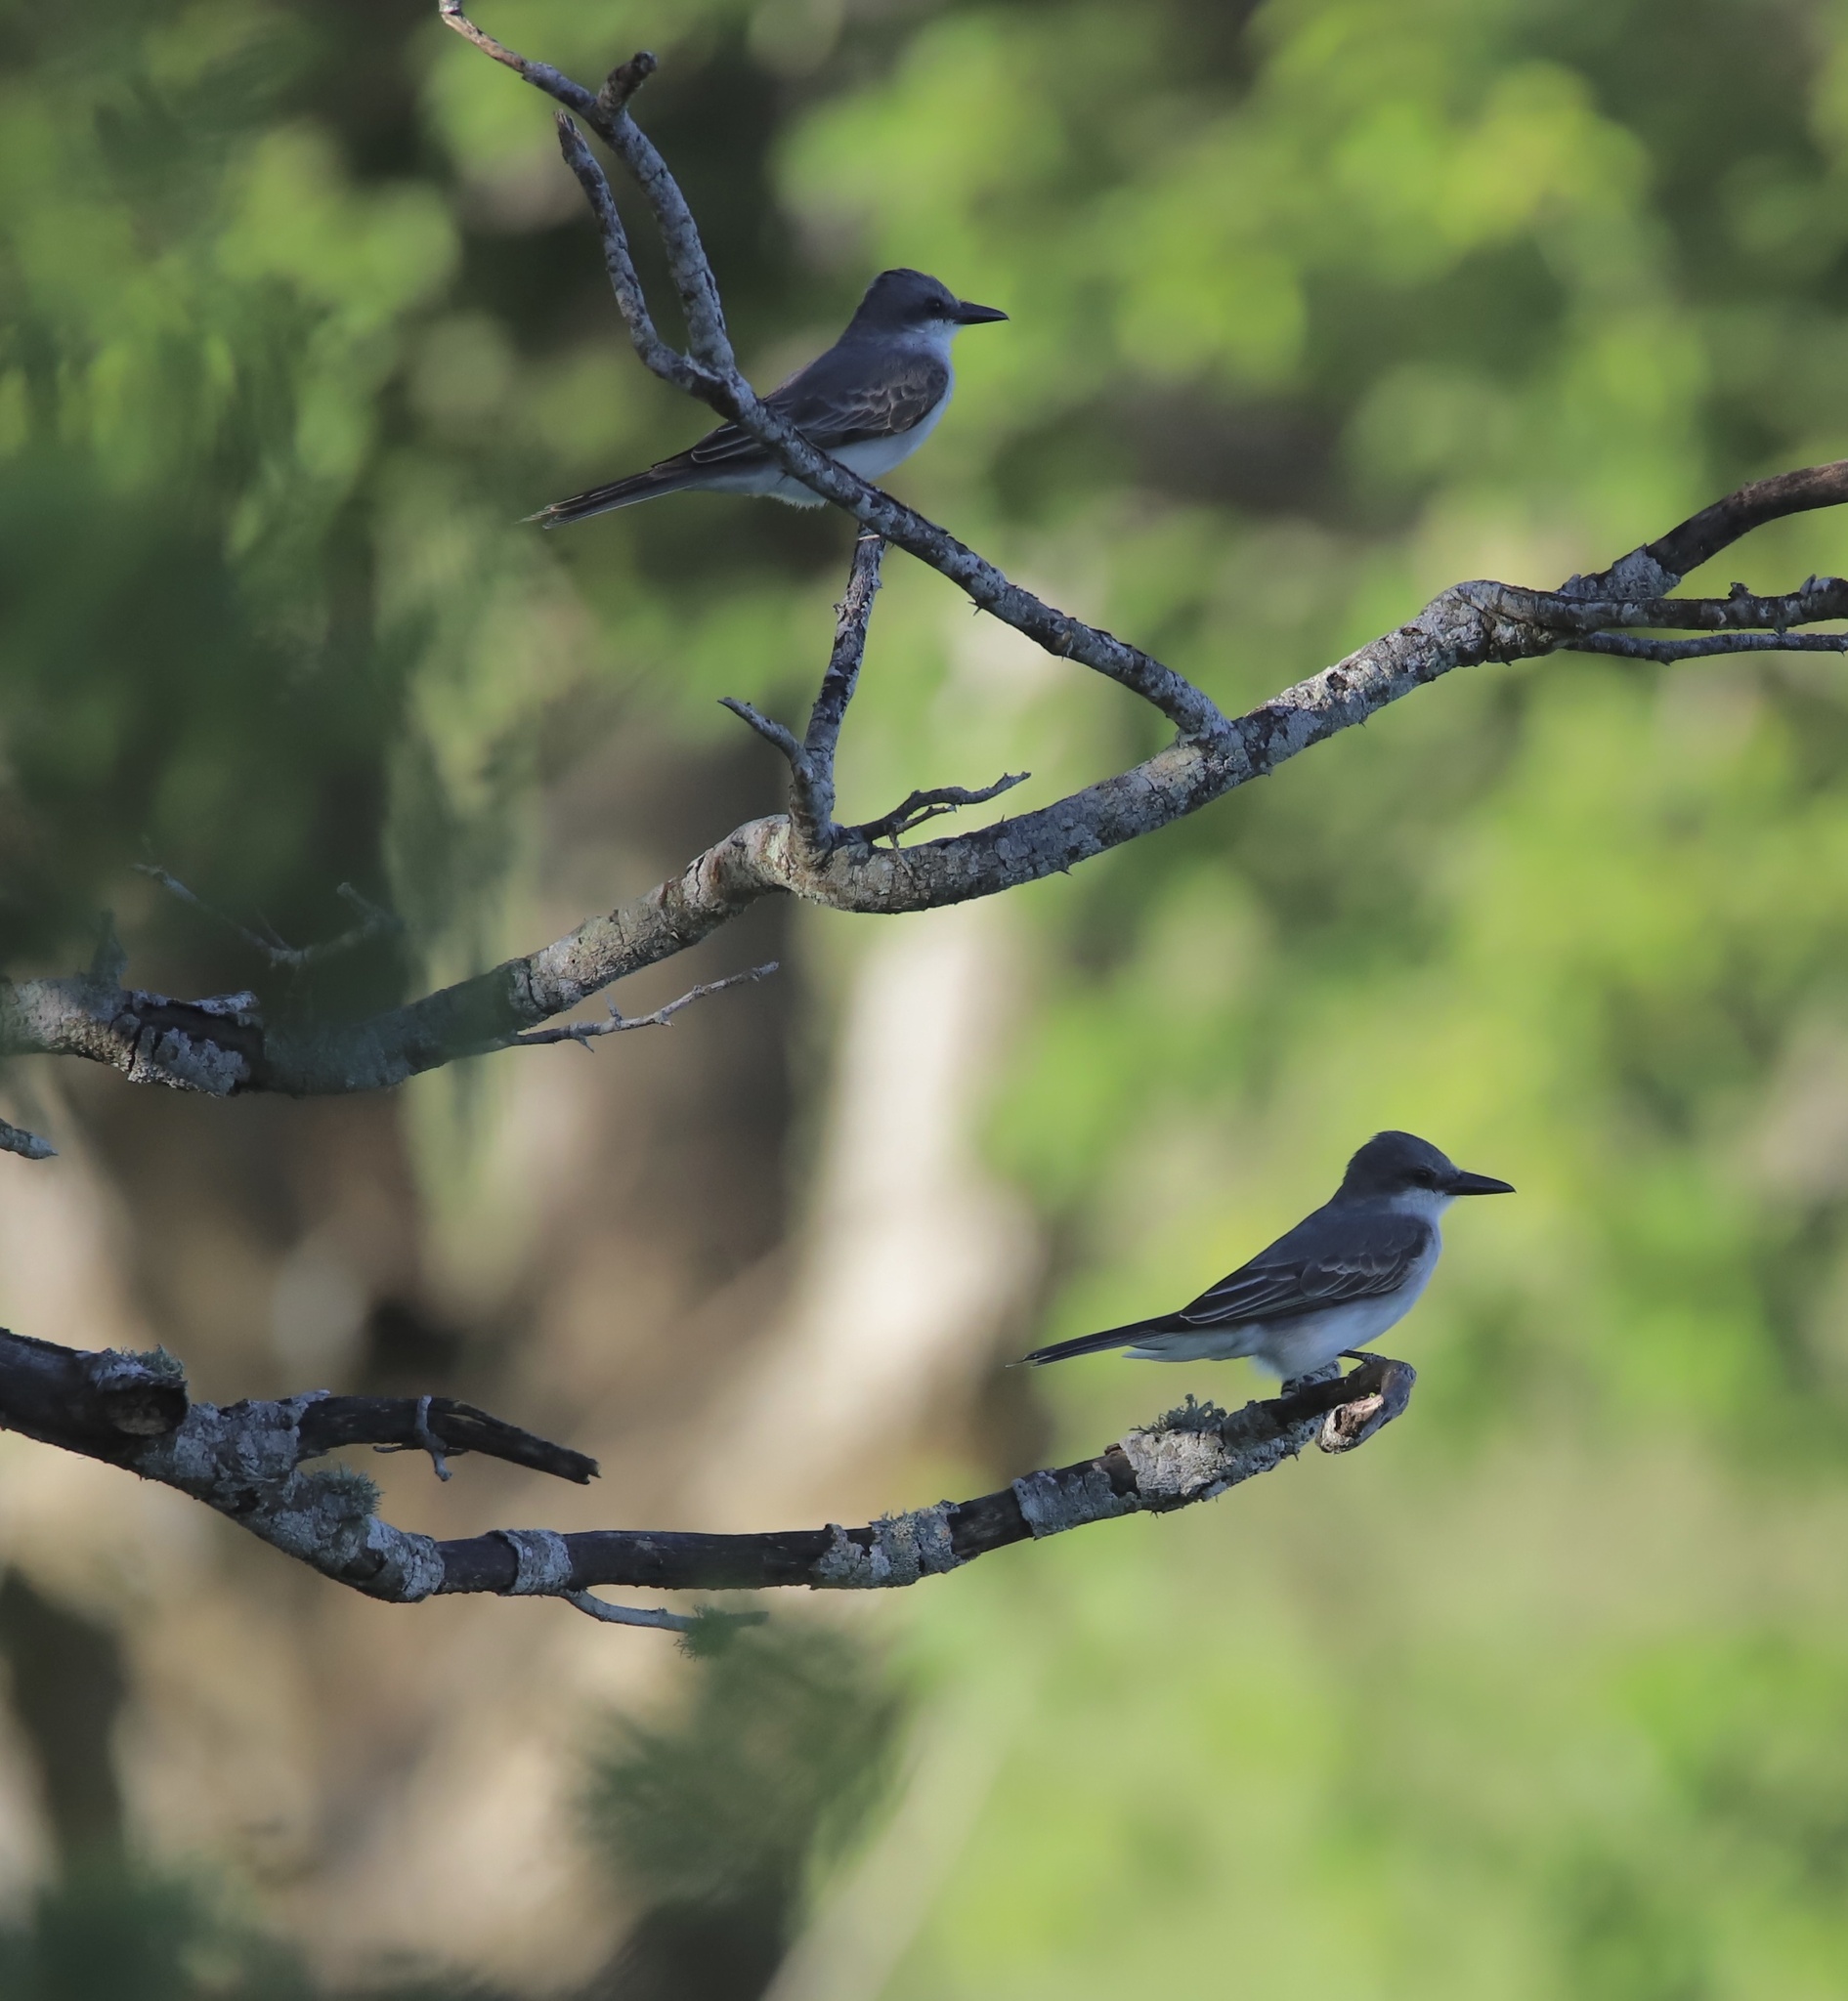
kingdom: Animalia
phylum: Chordata
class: Aves
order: Passeriformes
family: Tyrannidae
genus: Tyrannus
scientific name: Tyrannus dominicensis
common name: Gray kingbird
